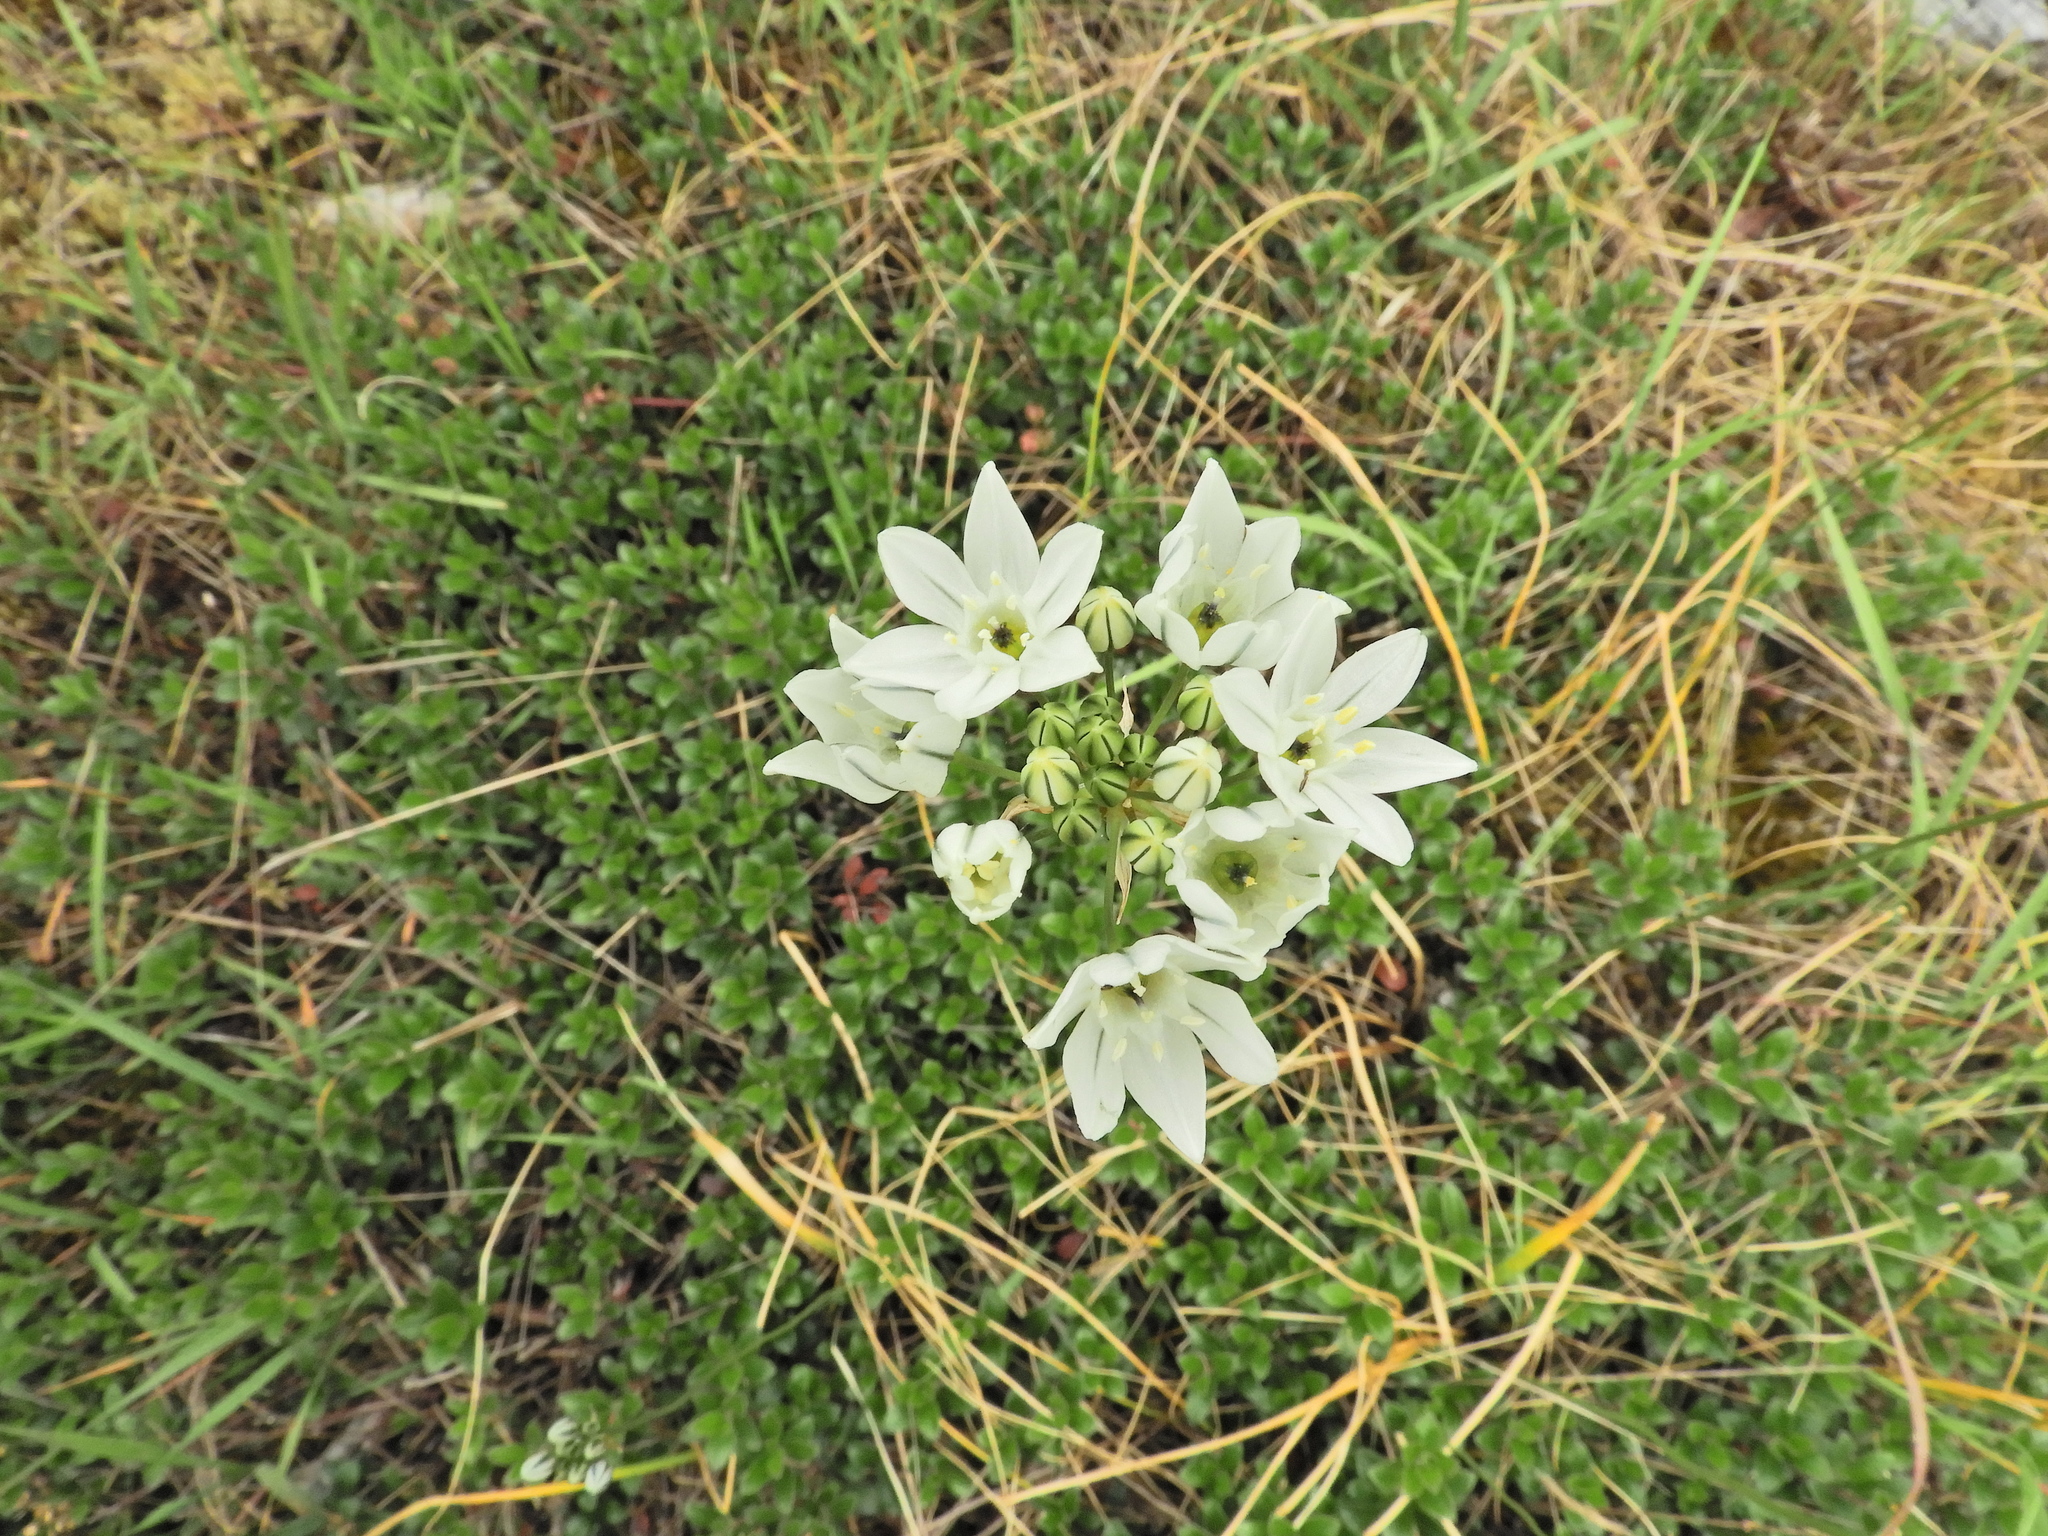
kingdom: Plantae
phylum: Tracheophyta
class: Liliopsida
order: Asparagales
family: Asparagaceae
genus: Triteleia
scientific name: Triteleia hyacinthina
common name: White brodiaea
